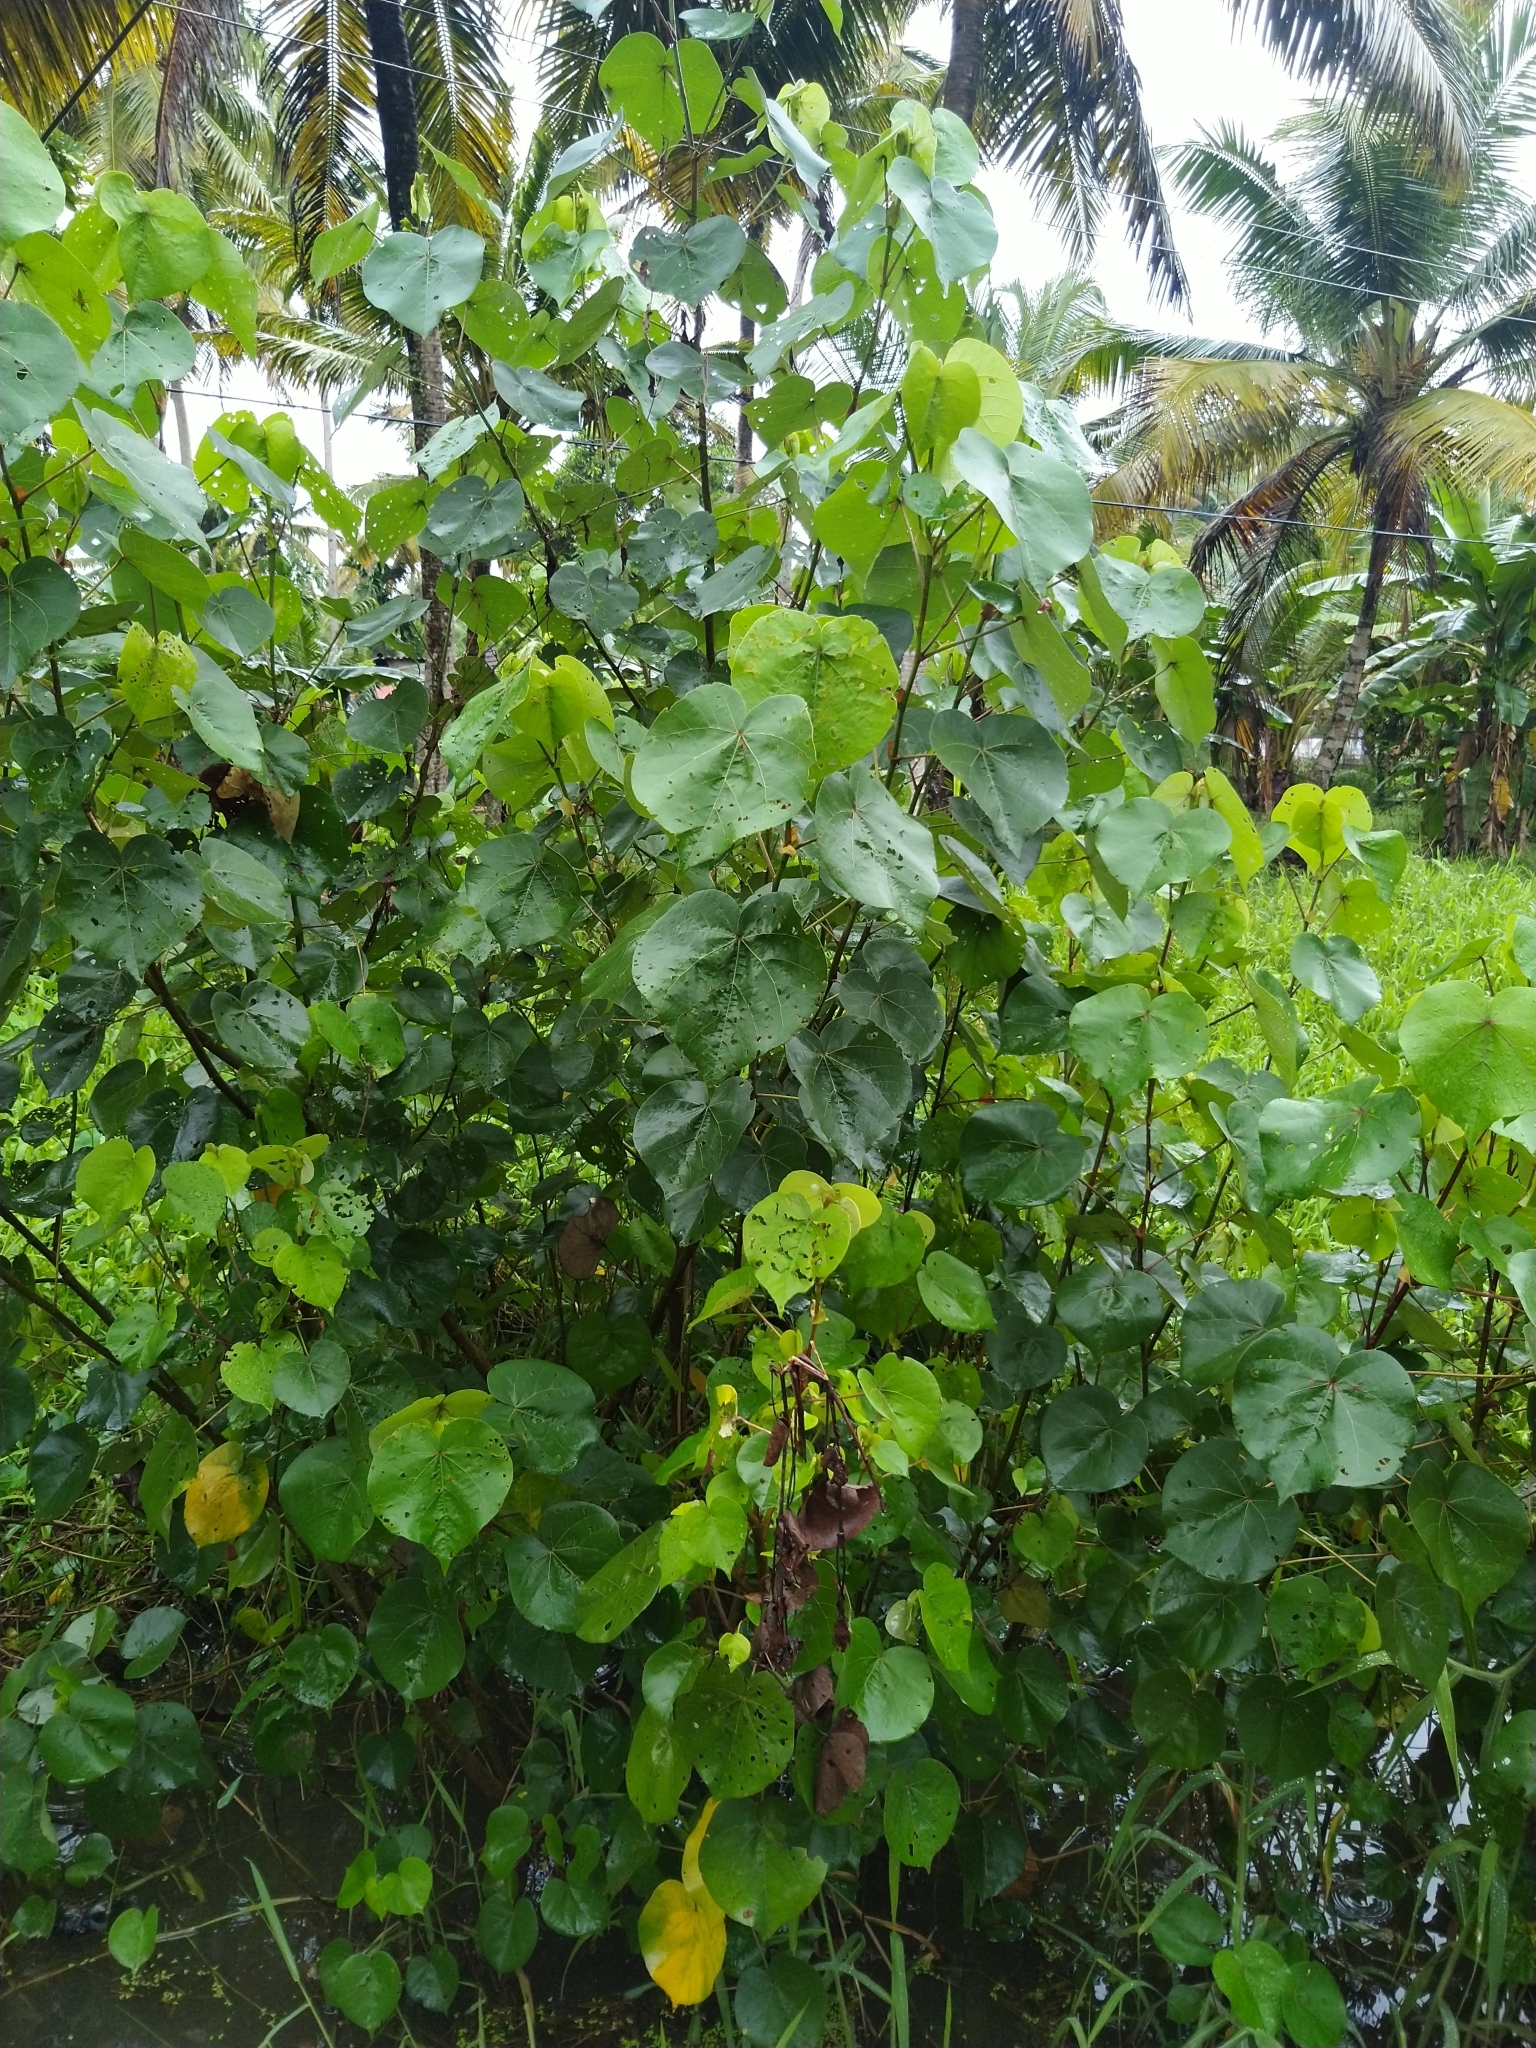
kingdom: Plantae
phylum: Tracheophyta
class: Magnoliopsida
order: Malvales
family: Malvaceae
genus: Talipariti
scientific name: Talipariti tiliaceum
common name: Sea hibiscus
